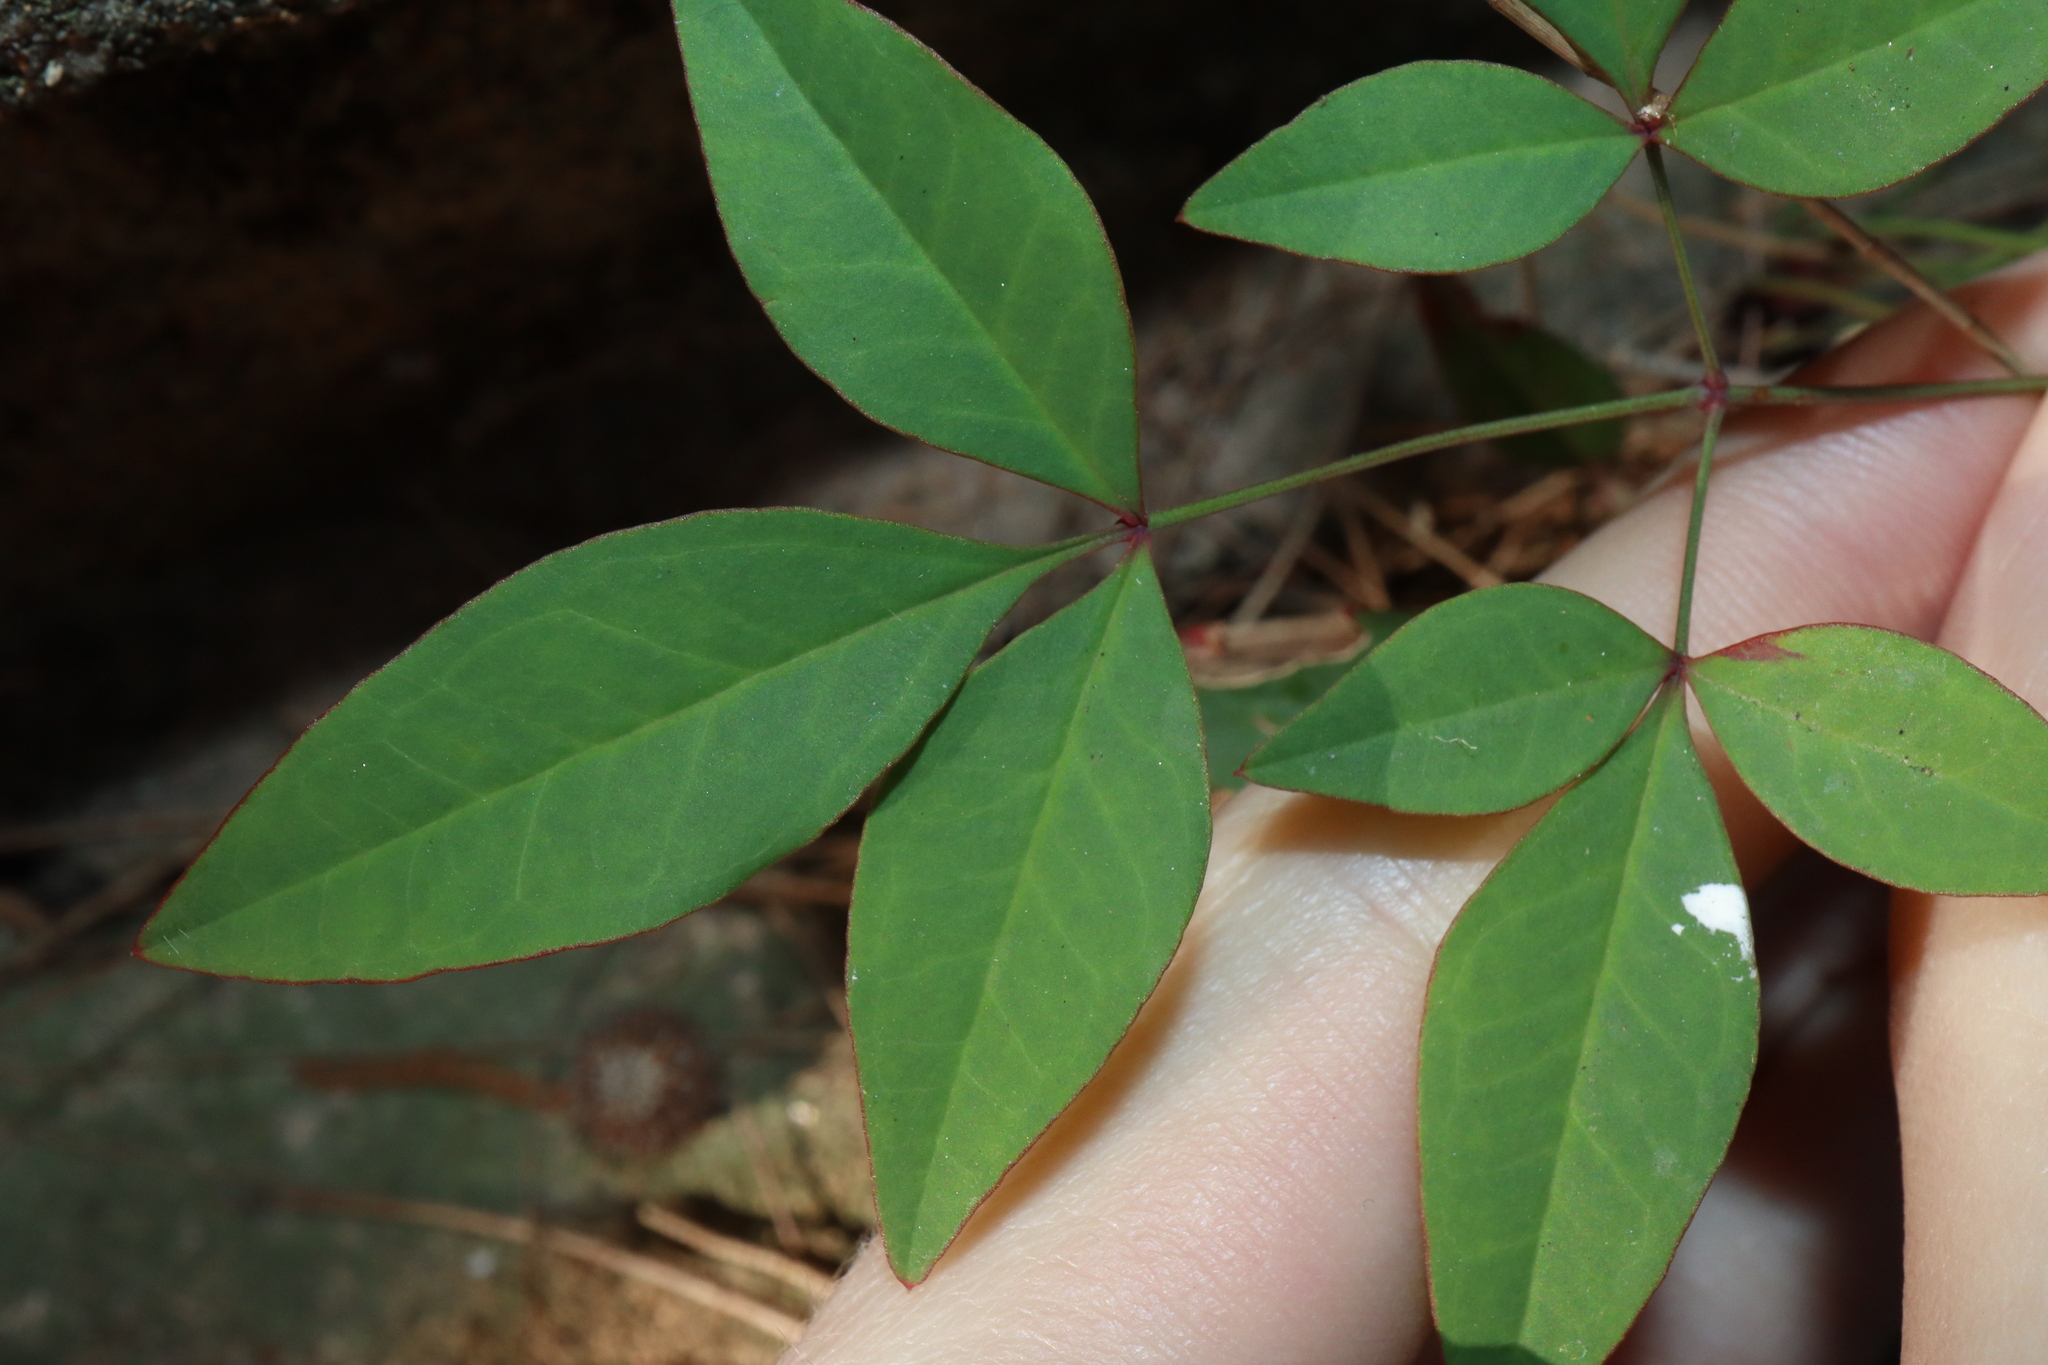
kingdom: Plantae
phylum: Tracheophyta
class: Magnoliopsida
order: Ranunculales
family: Berberidaceae
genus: Nandina
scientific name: Nandina domestica
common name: Sacred bamboo
